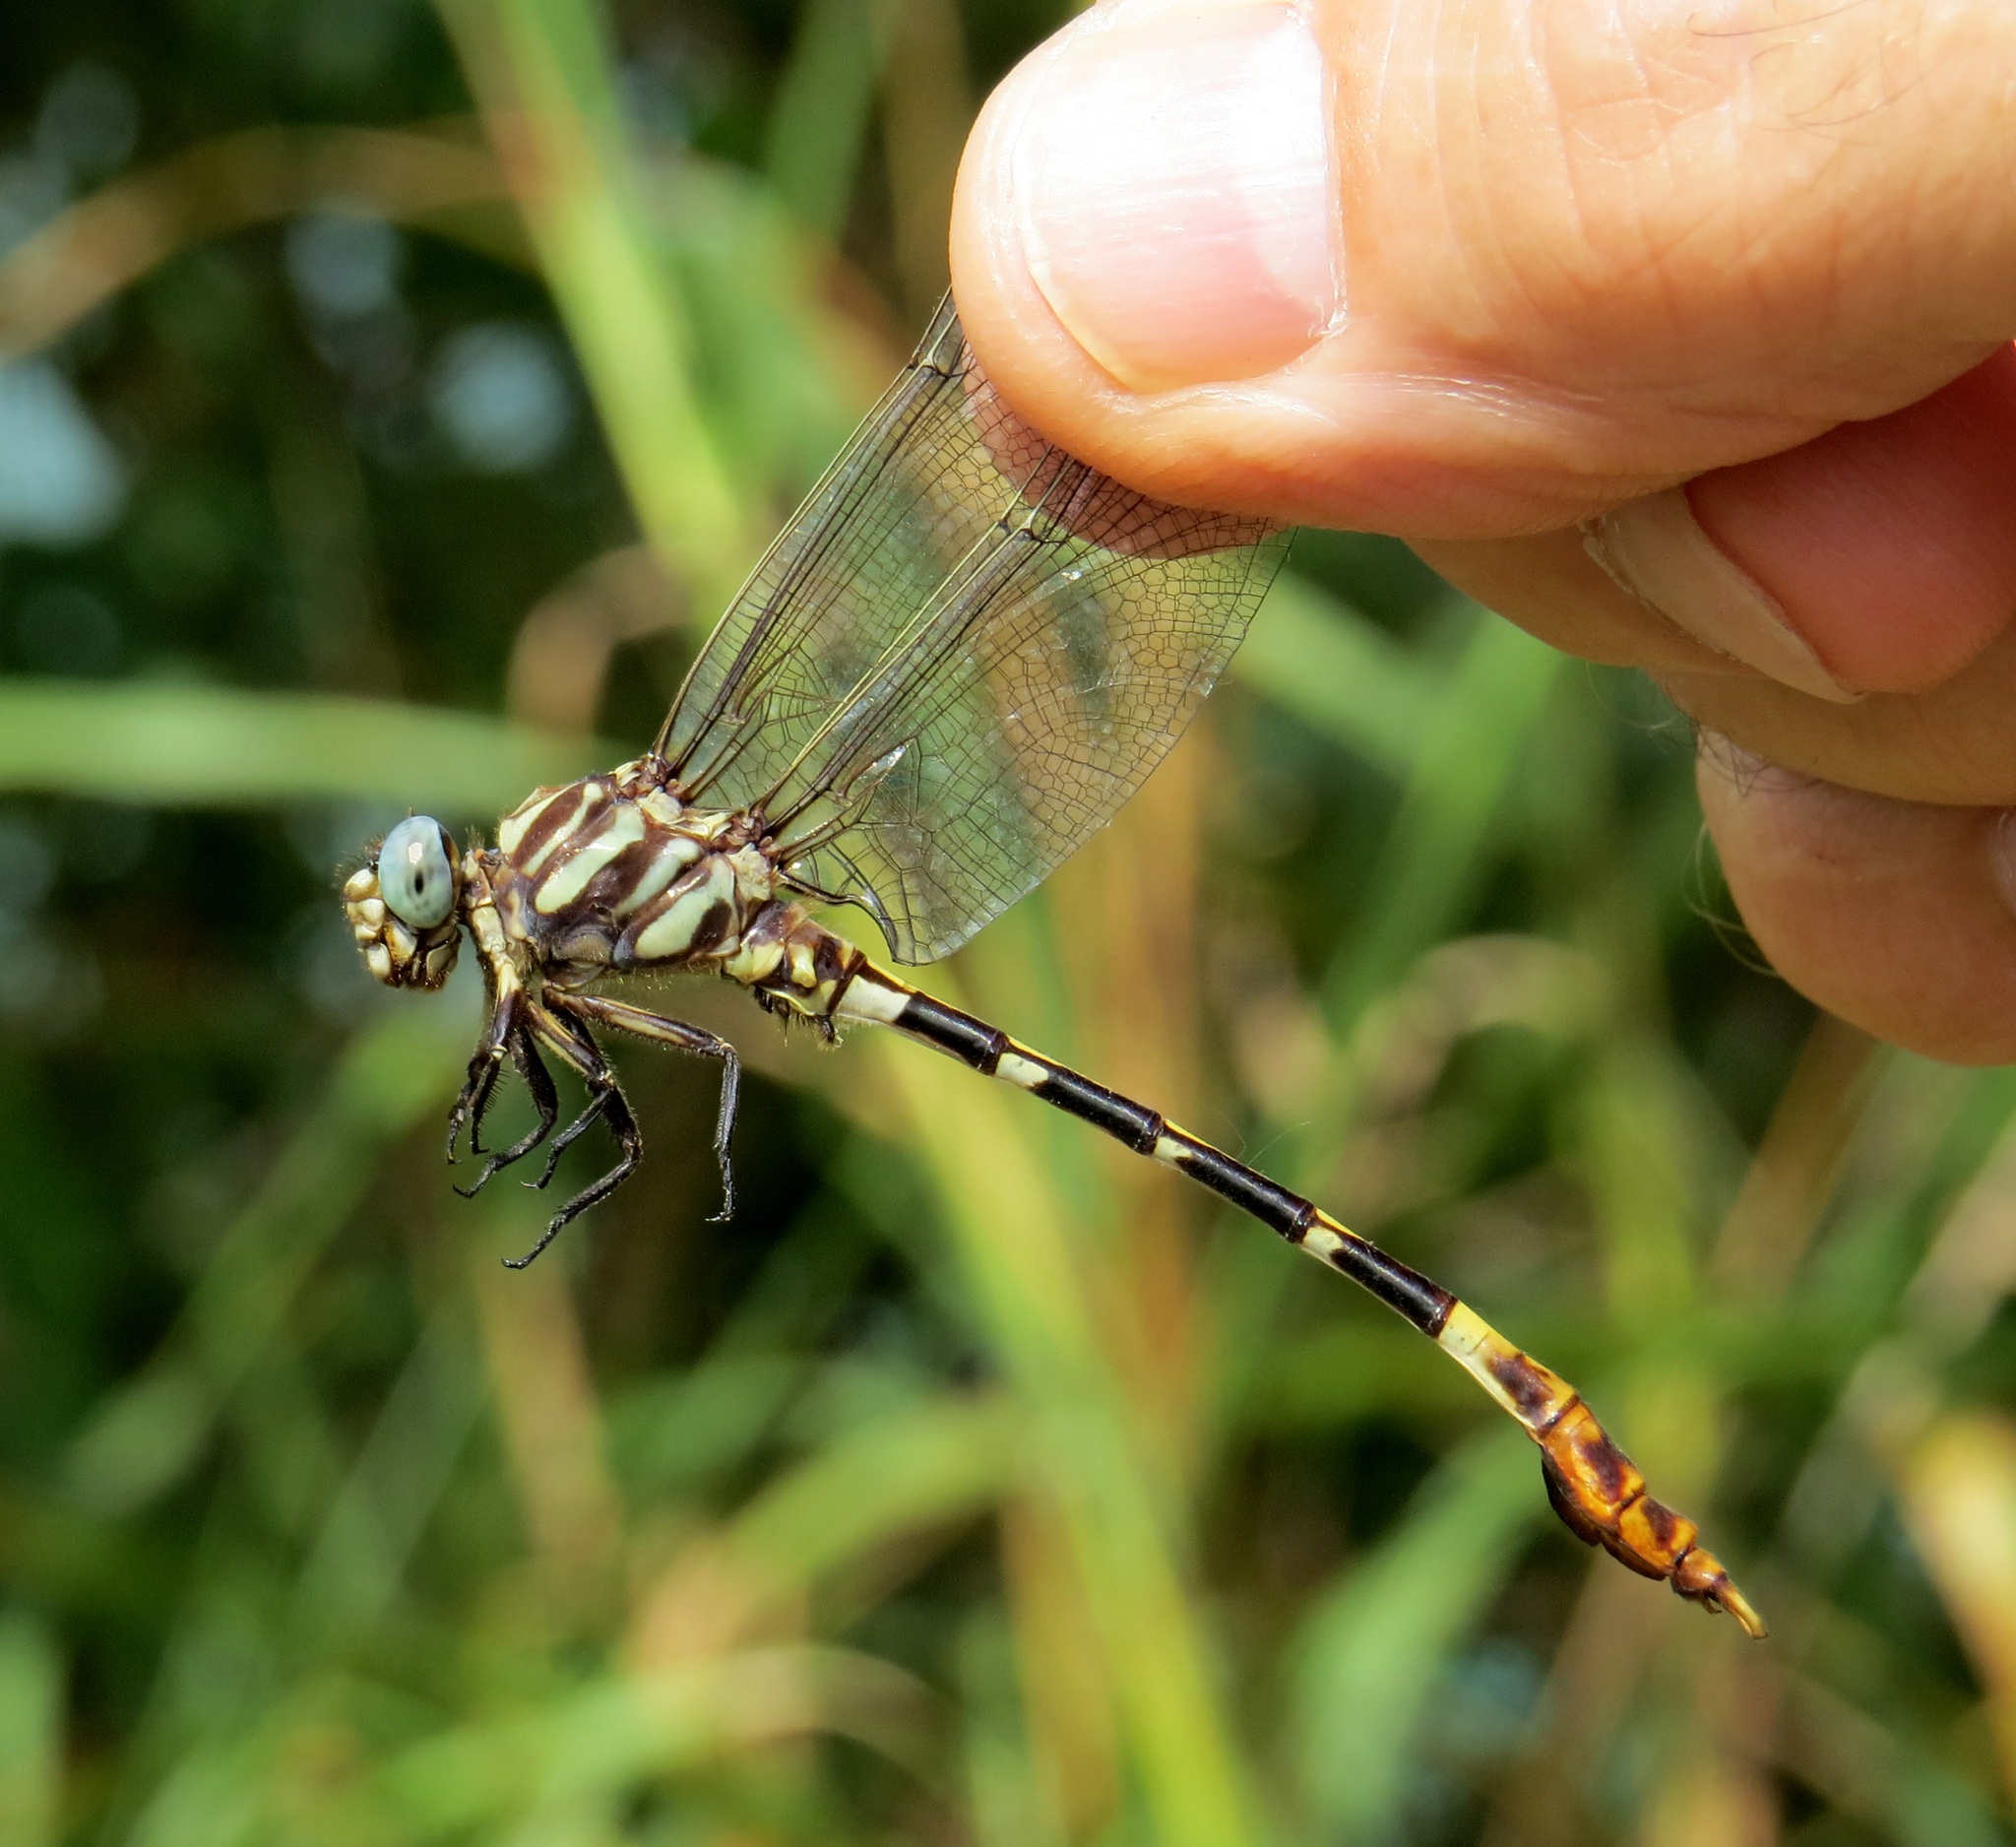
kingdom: Animalia
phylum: Arthropoda
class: Insecta
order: Odonata
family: Gomphidae
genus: Phyllogomphoides
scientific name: Phyllogomphoides albrighti
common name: Five-striped leaftail
